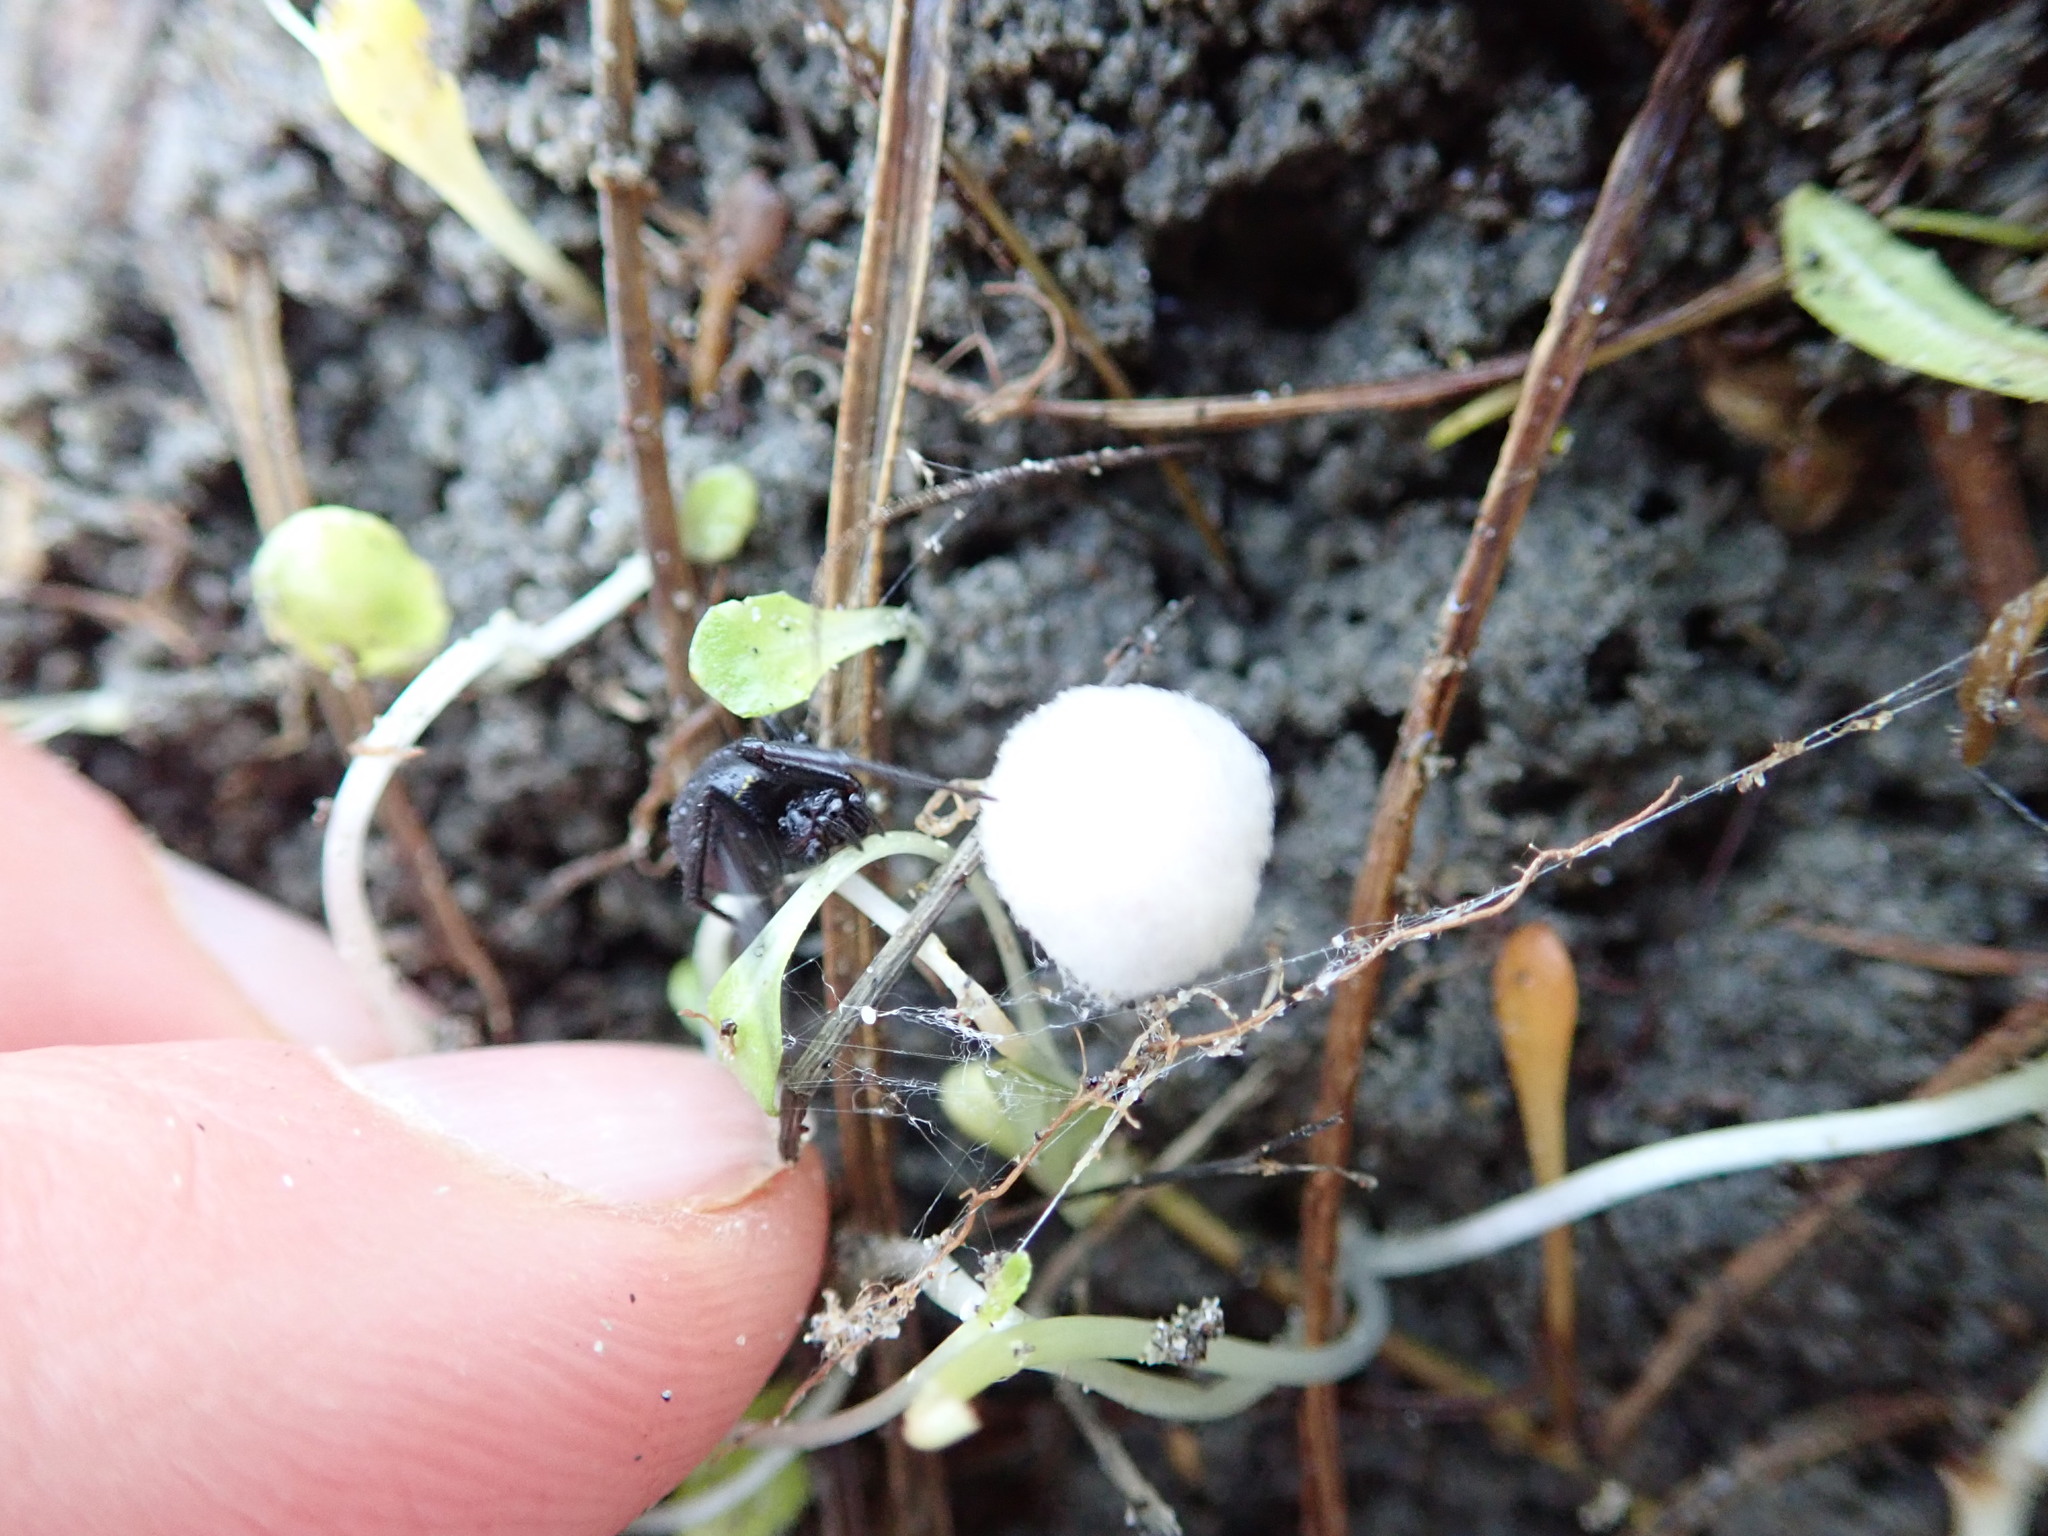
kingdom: Animalia
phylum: Arthropoda
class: Arachnida
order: Araneae
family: Theridiidae
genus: Steatoda
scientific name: Steatoda capensis
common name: Cobweb weaver
